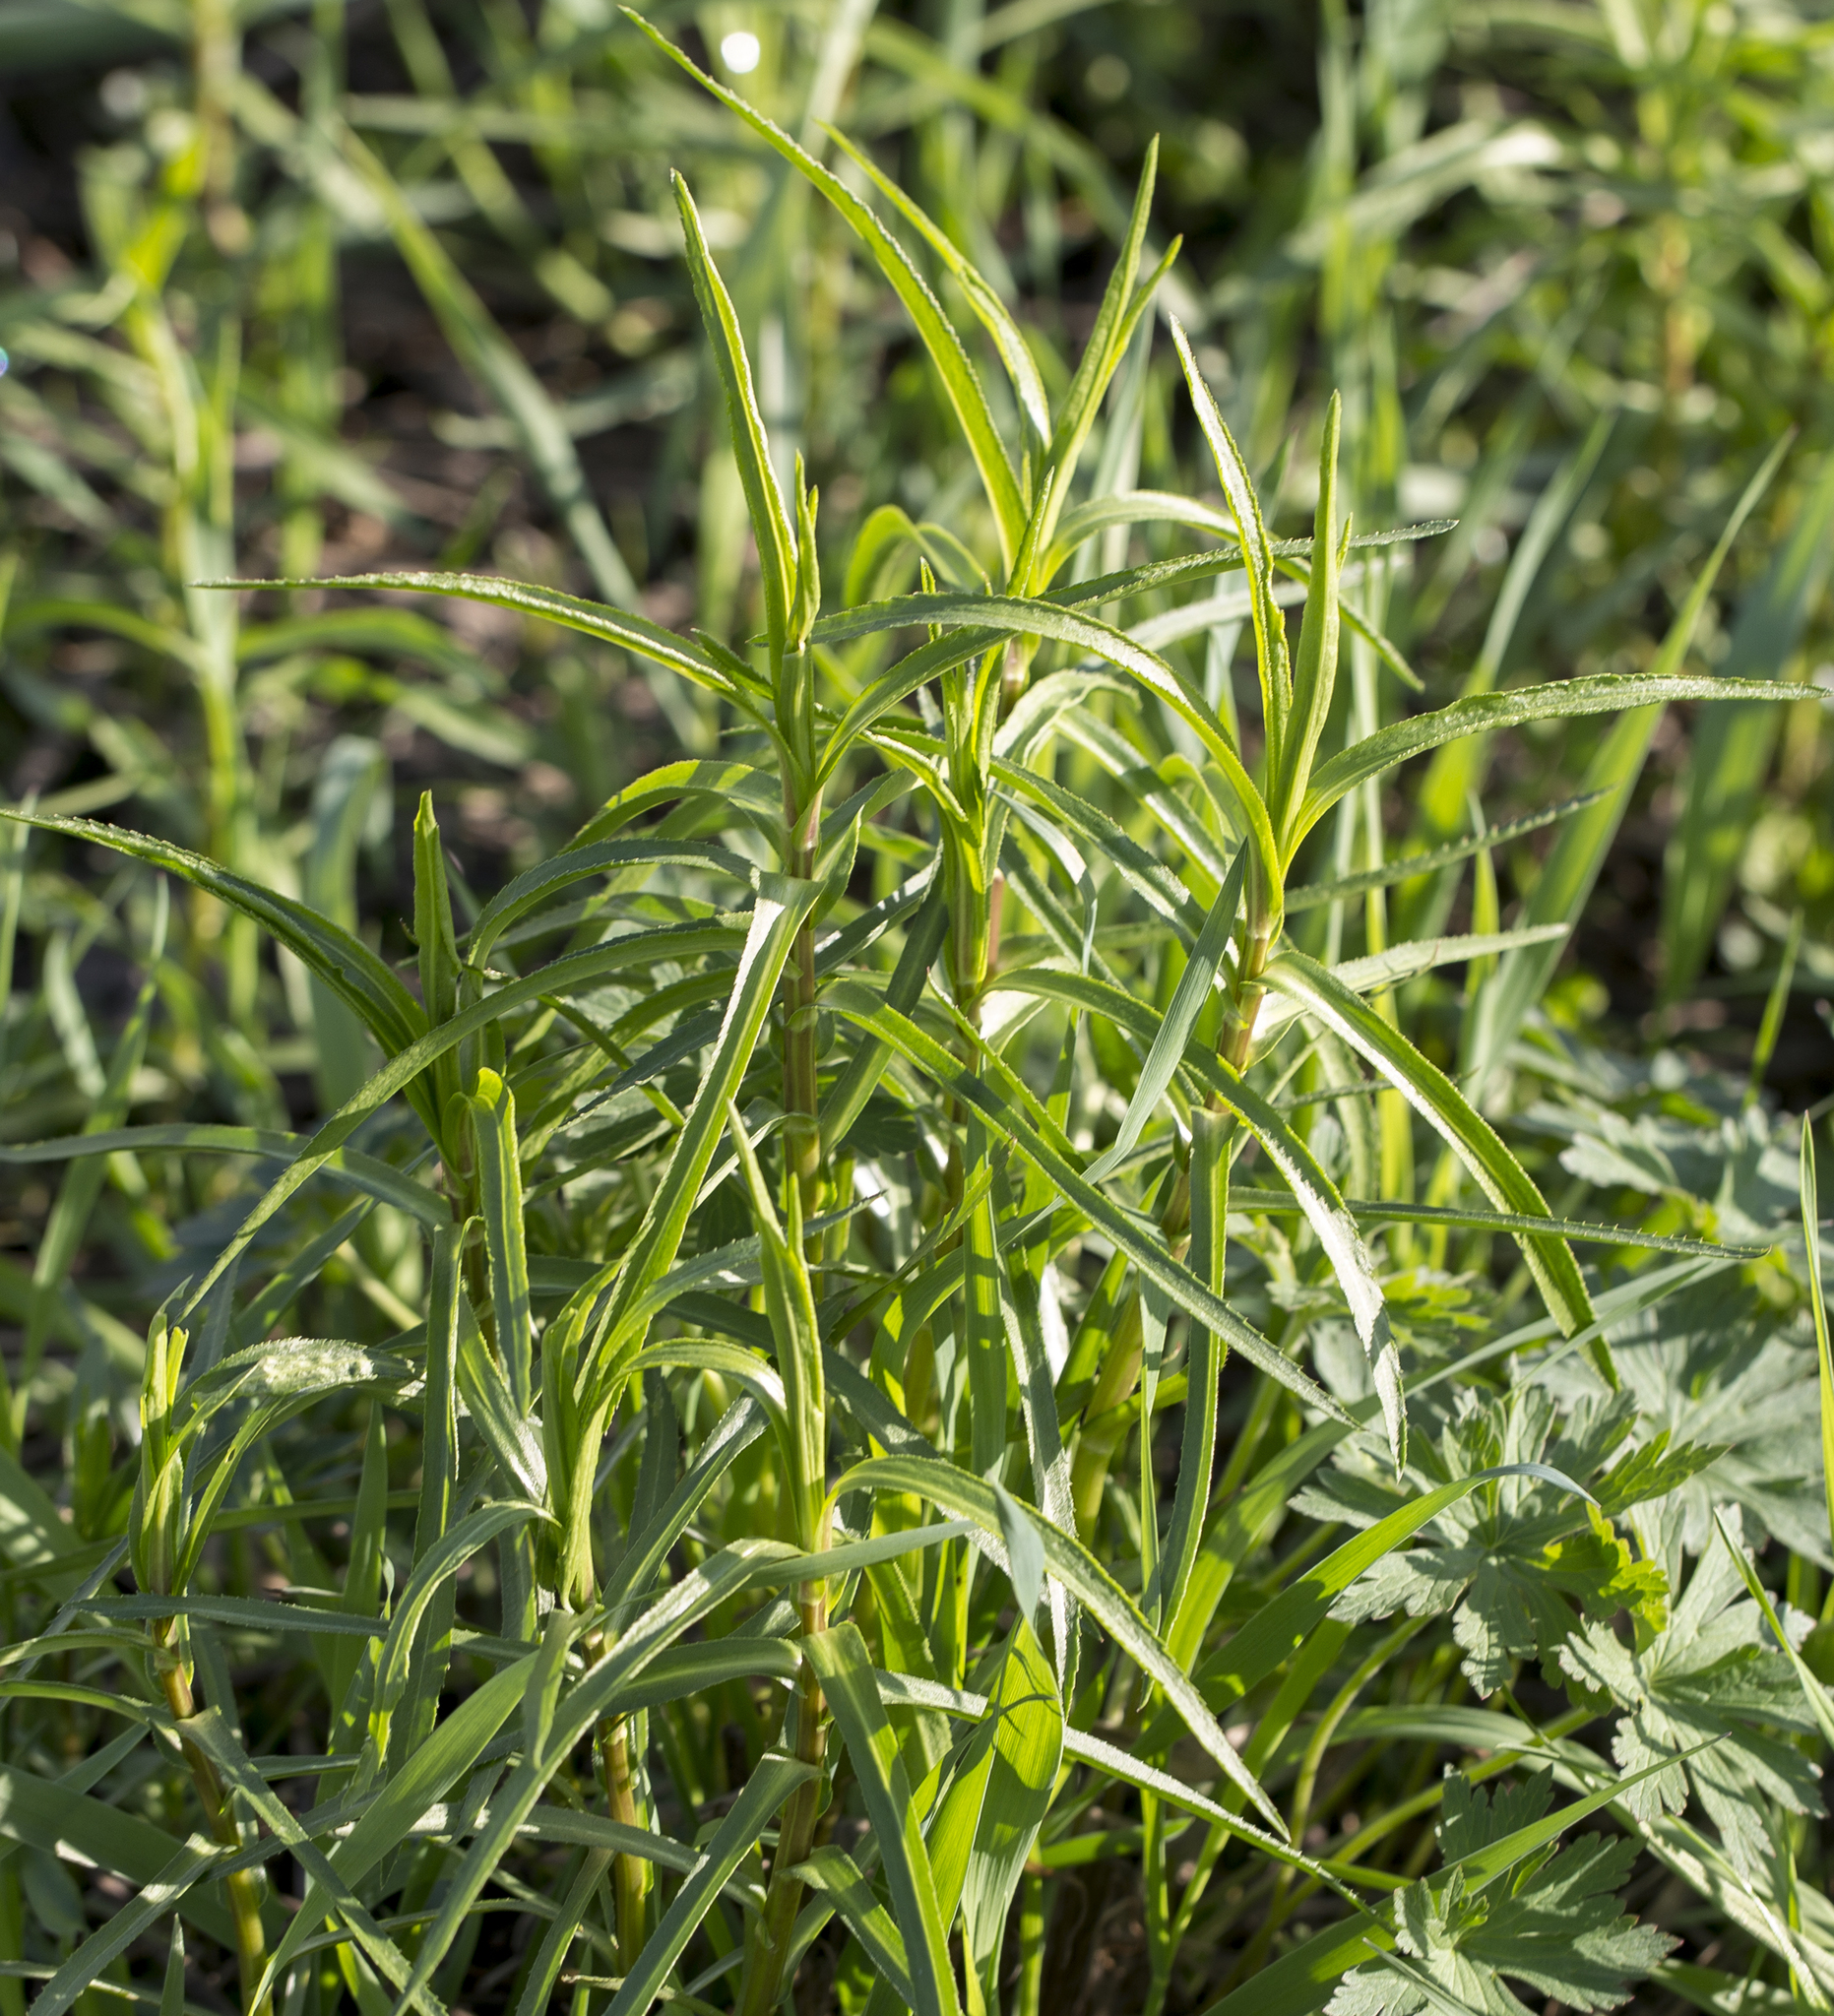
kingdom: Plantae
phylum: Tracheophyta
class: Magnoliopsida
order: Asterales
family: Asteraceae
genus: Achillea
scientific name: Achillea salicifolia
